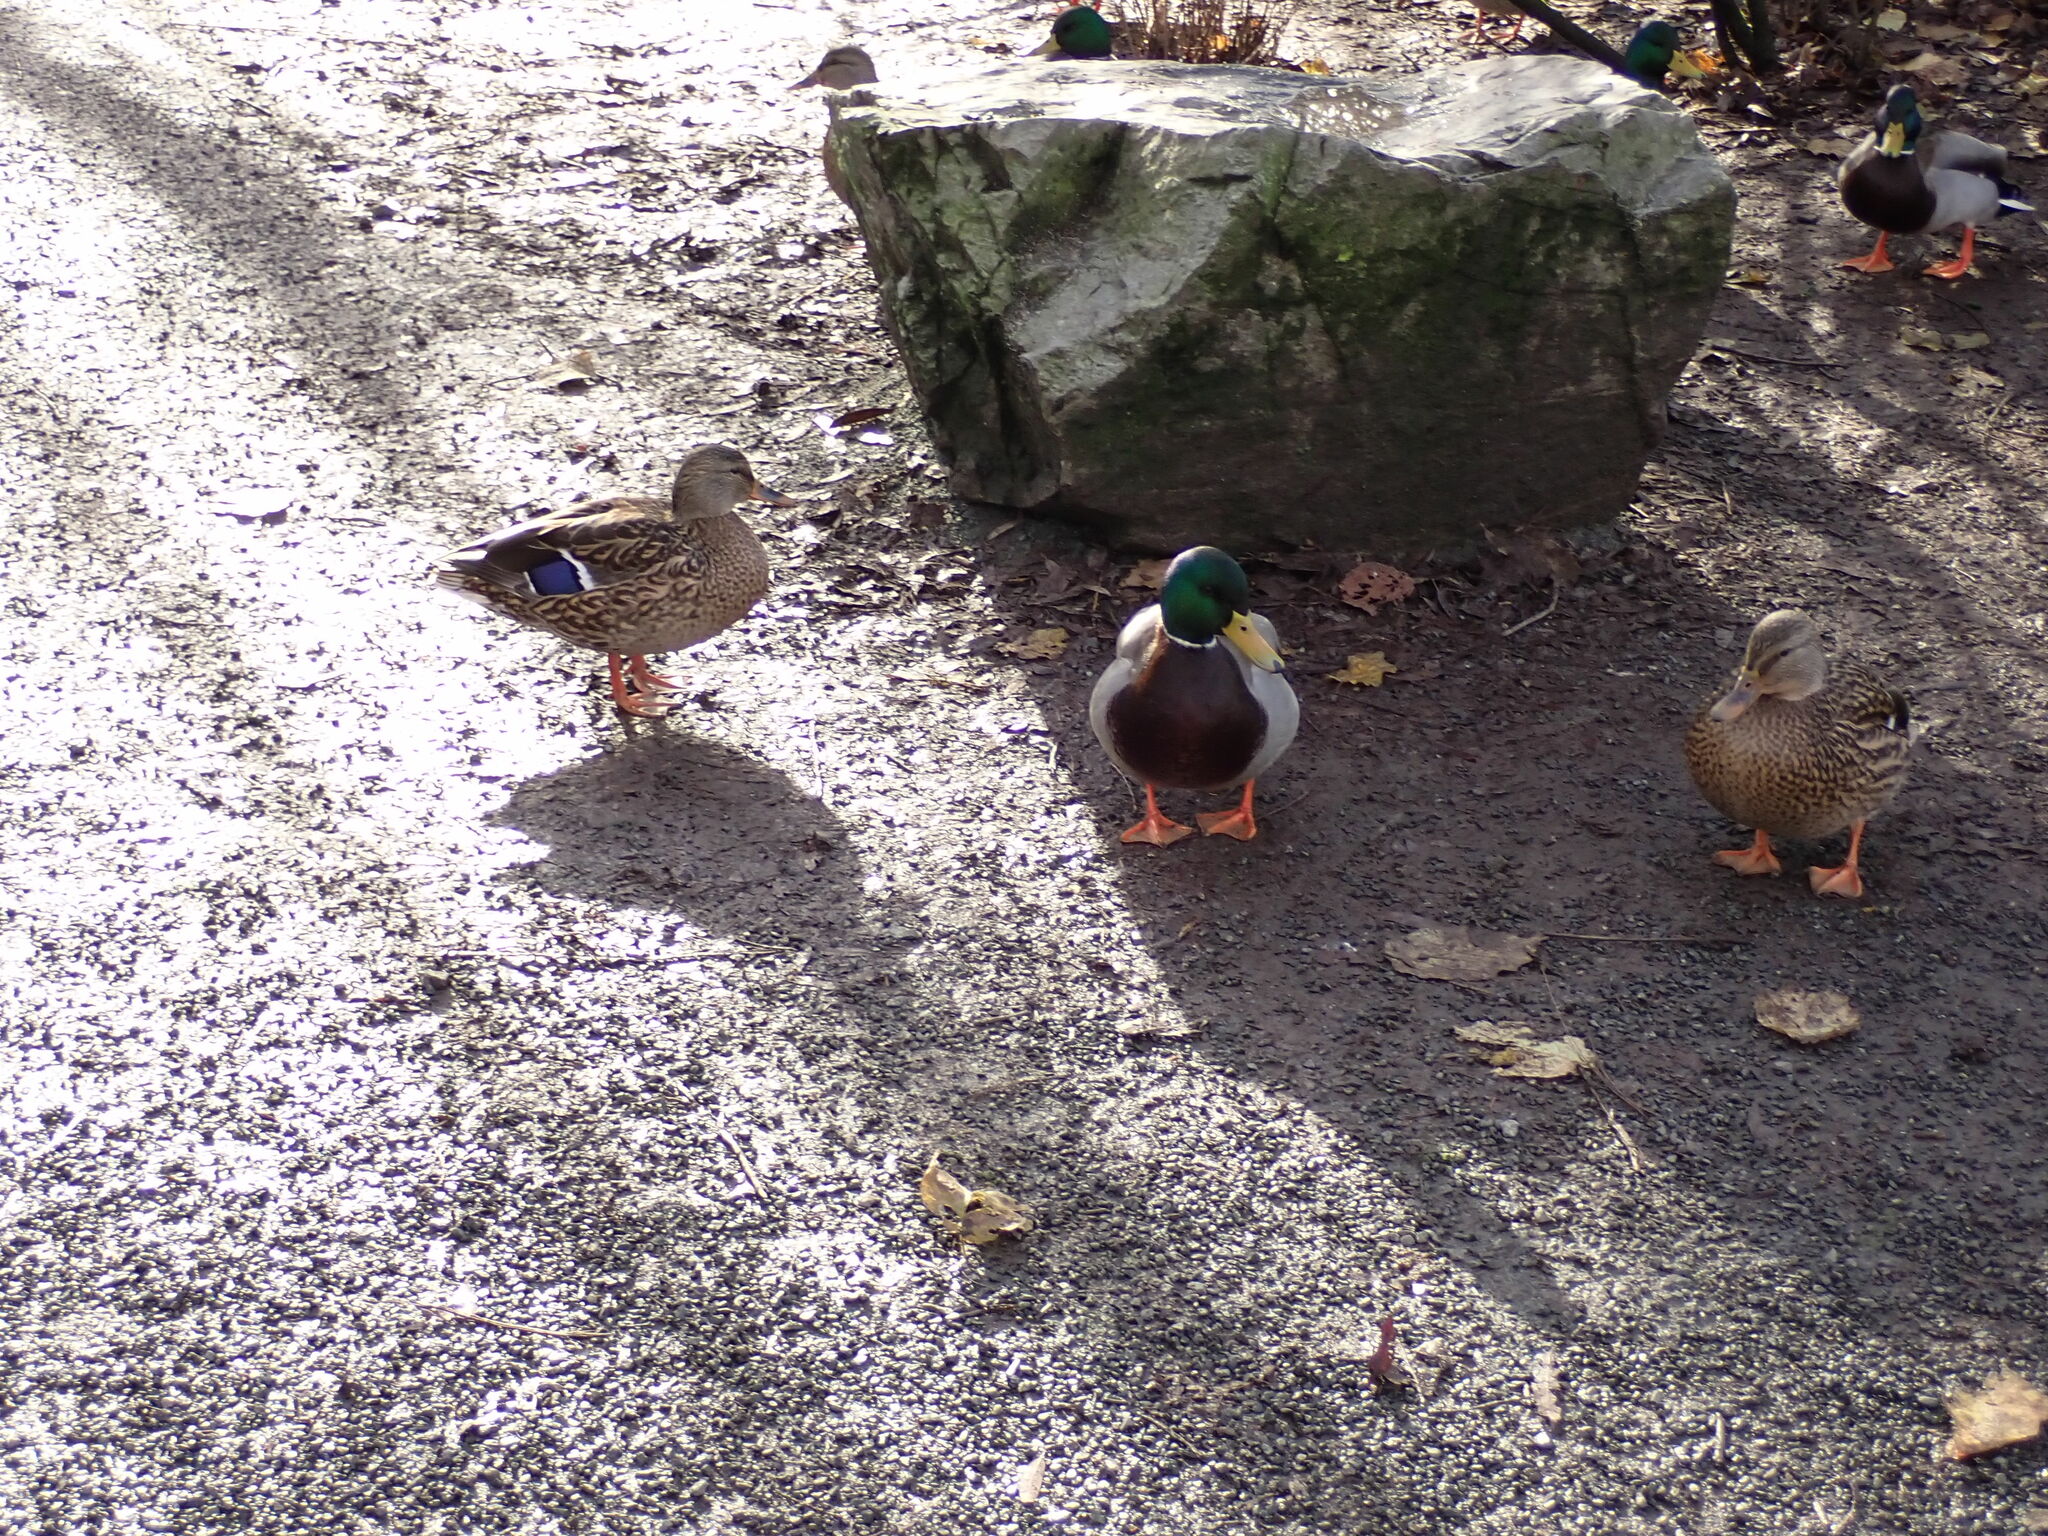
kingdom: Animalia
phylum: Chordata
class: Aves
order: Anseriformes
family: Anatidae
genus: Anas
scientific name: Anas platyrhynchos
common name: Mallard
